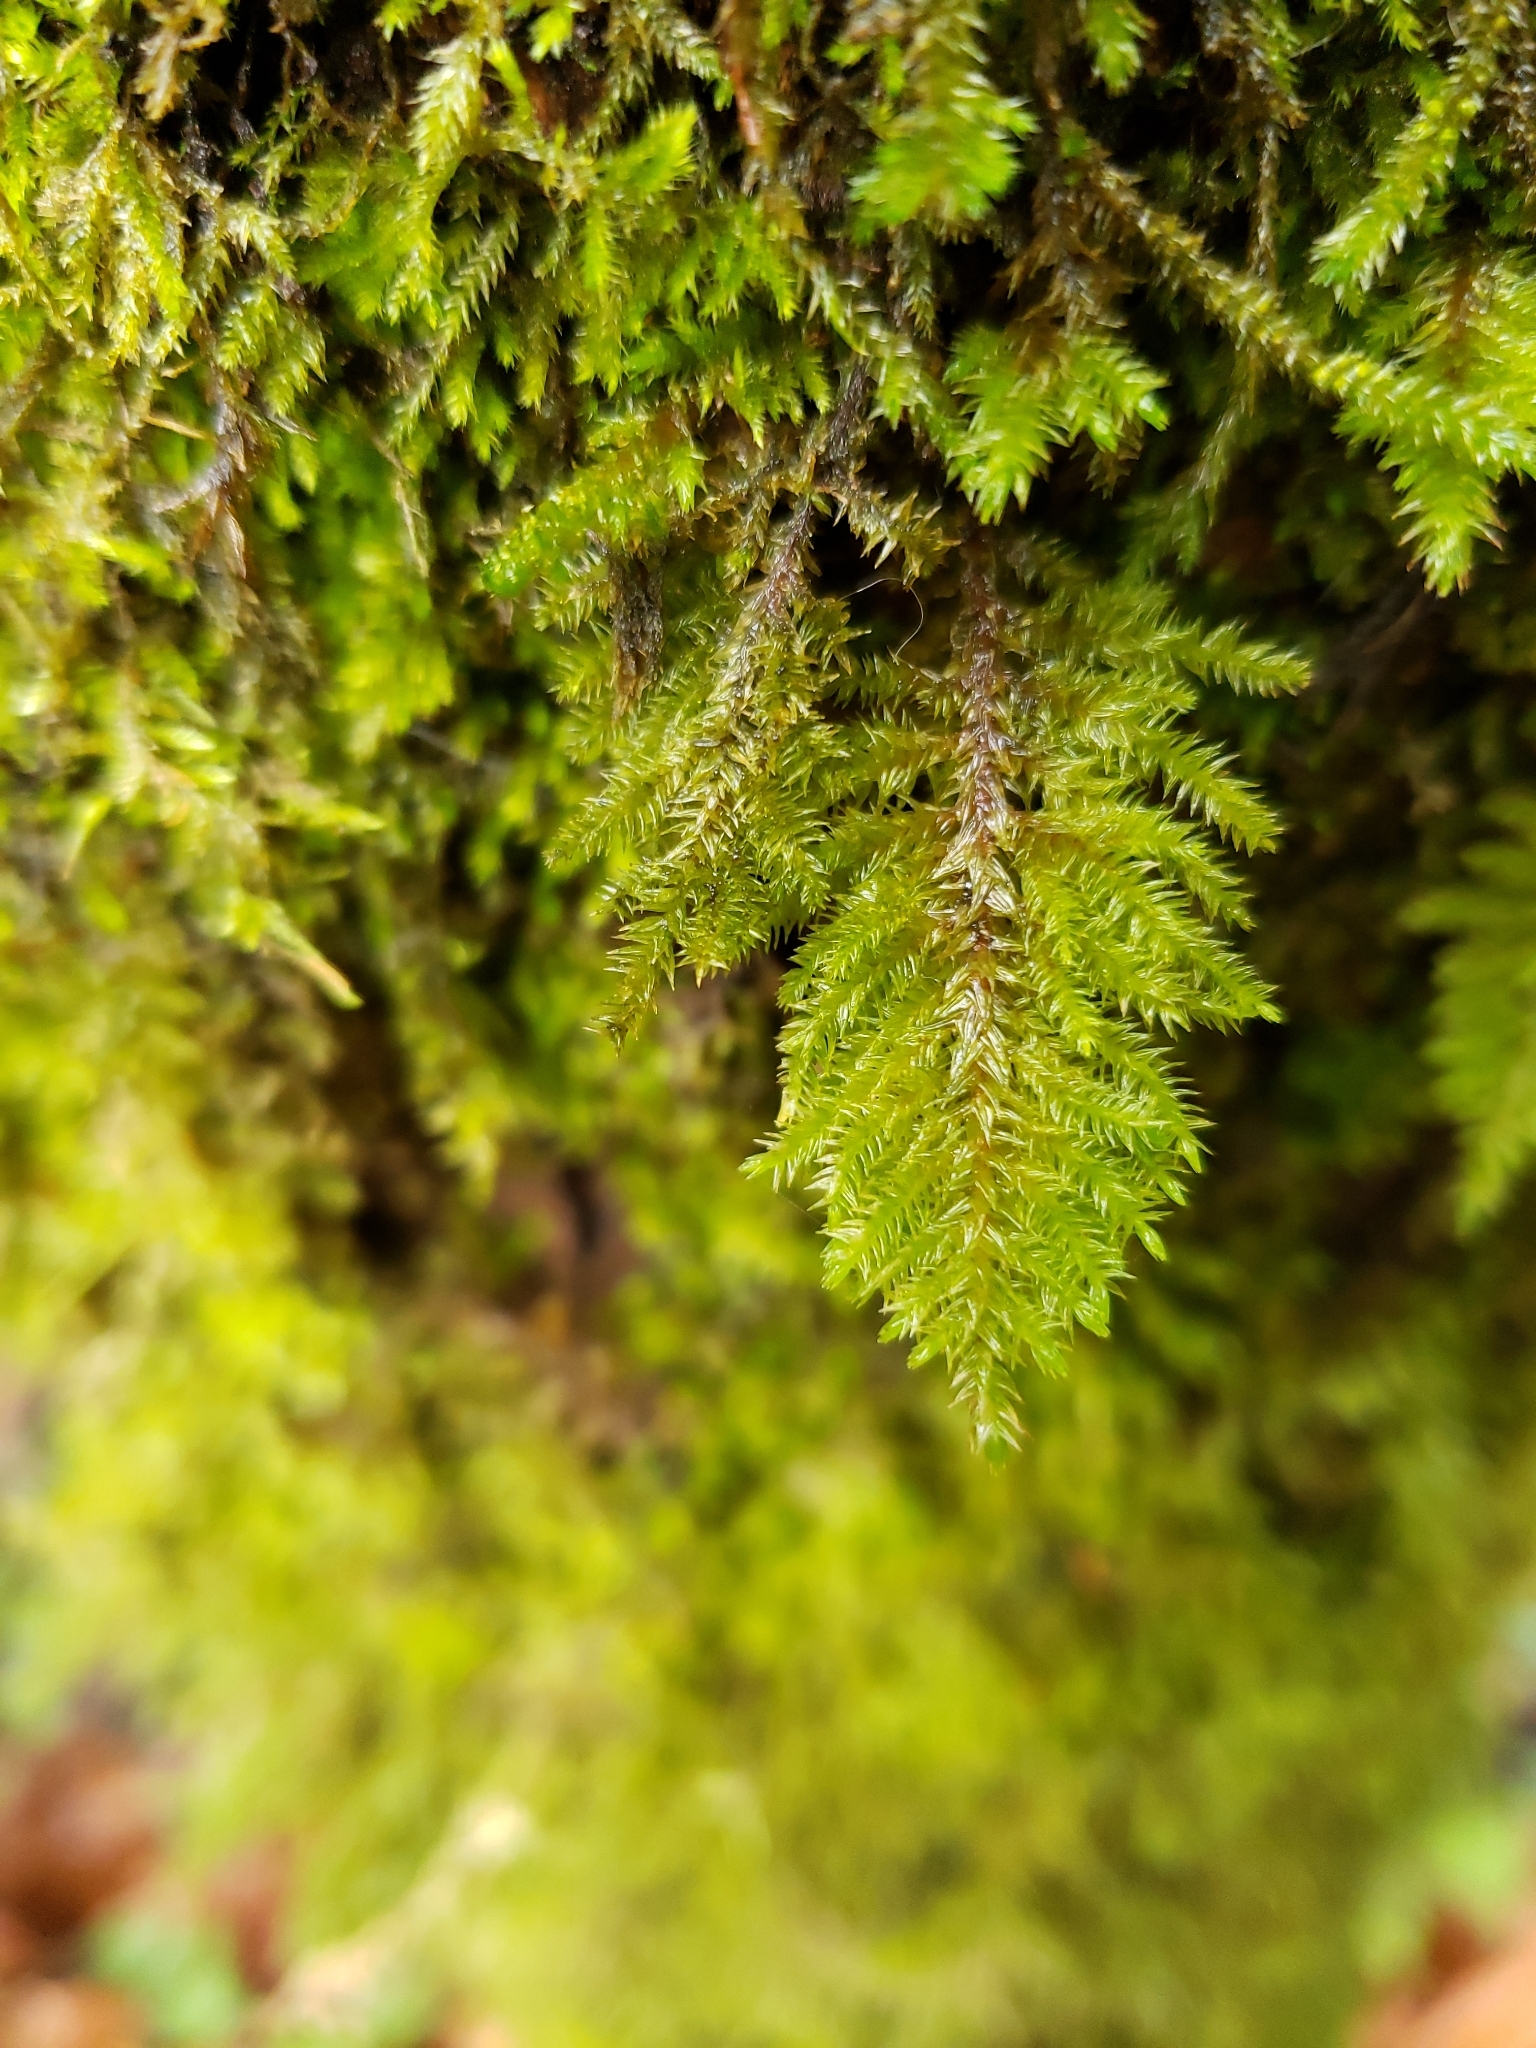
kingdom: Plantae
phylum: Bryophyta
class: Bryopsida
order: Hypnales
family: Cryphaeaceae
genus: Dendroalsia
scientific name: Dendroalsia abietina
